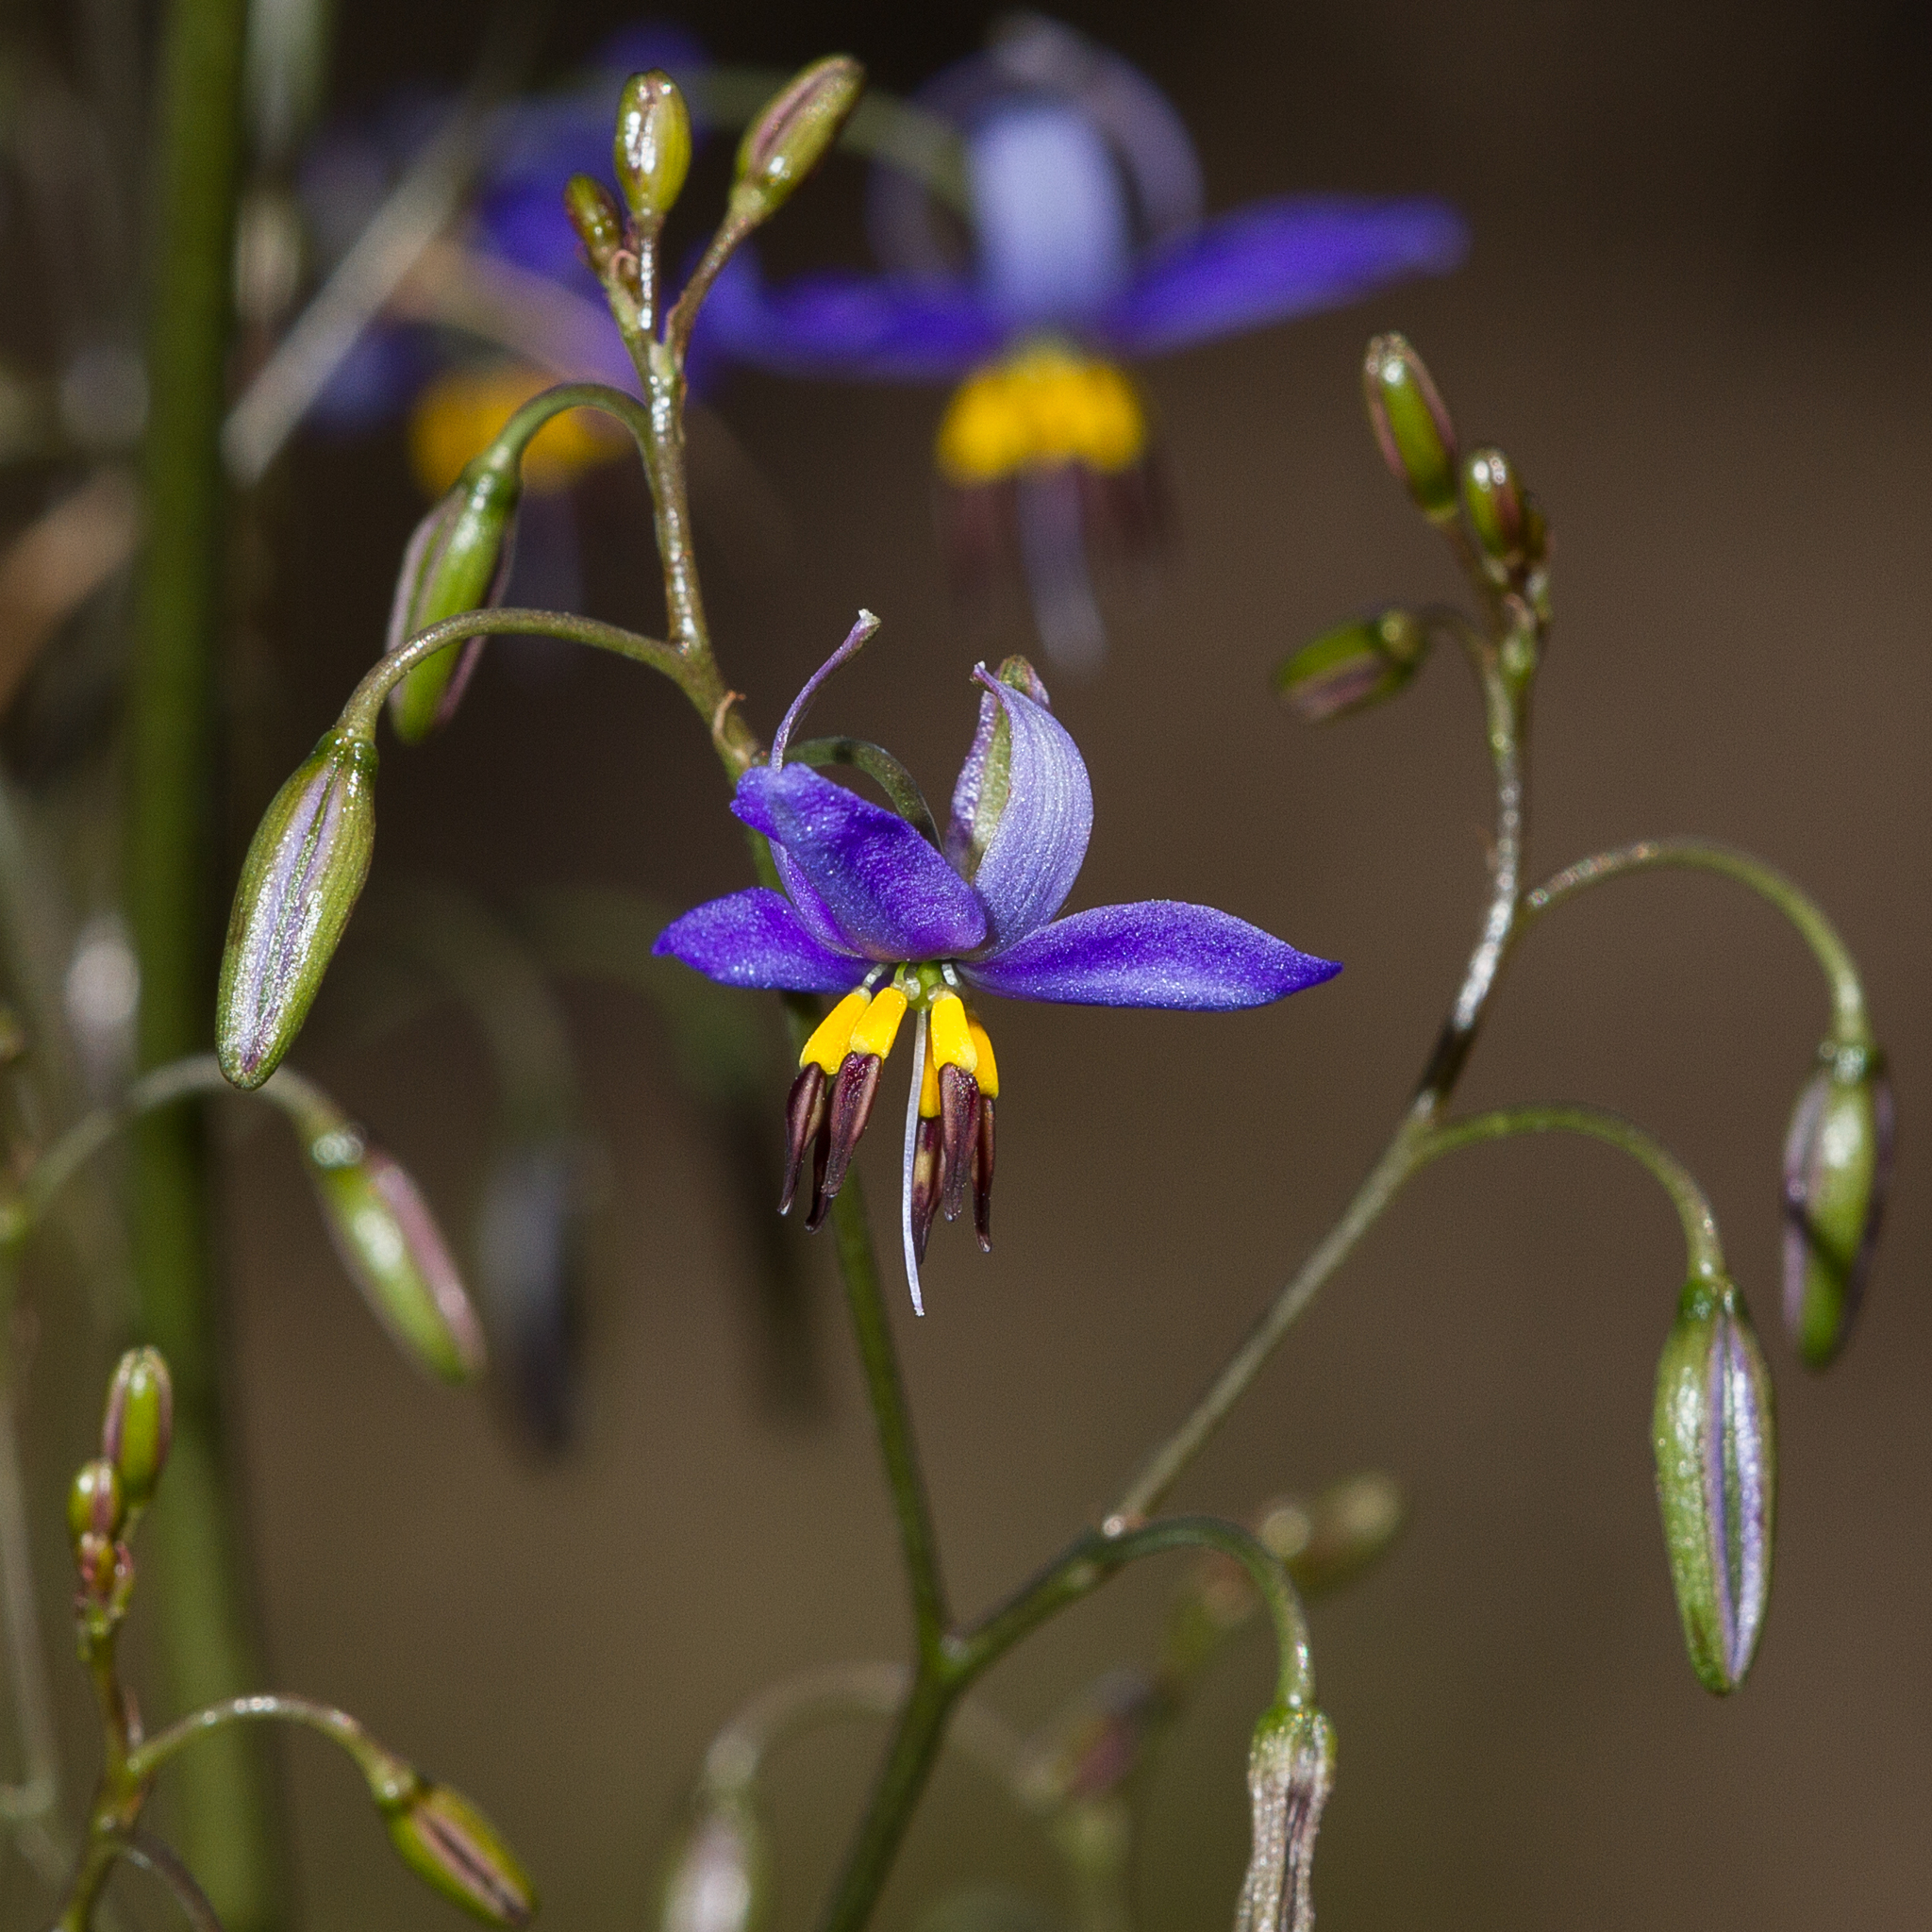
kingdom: Plantae
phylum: Tracheophyta
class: Liliopsida
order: Asparagales
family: Asphodelaceae
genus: Dianella
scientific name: Dianella revoluta
